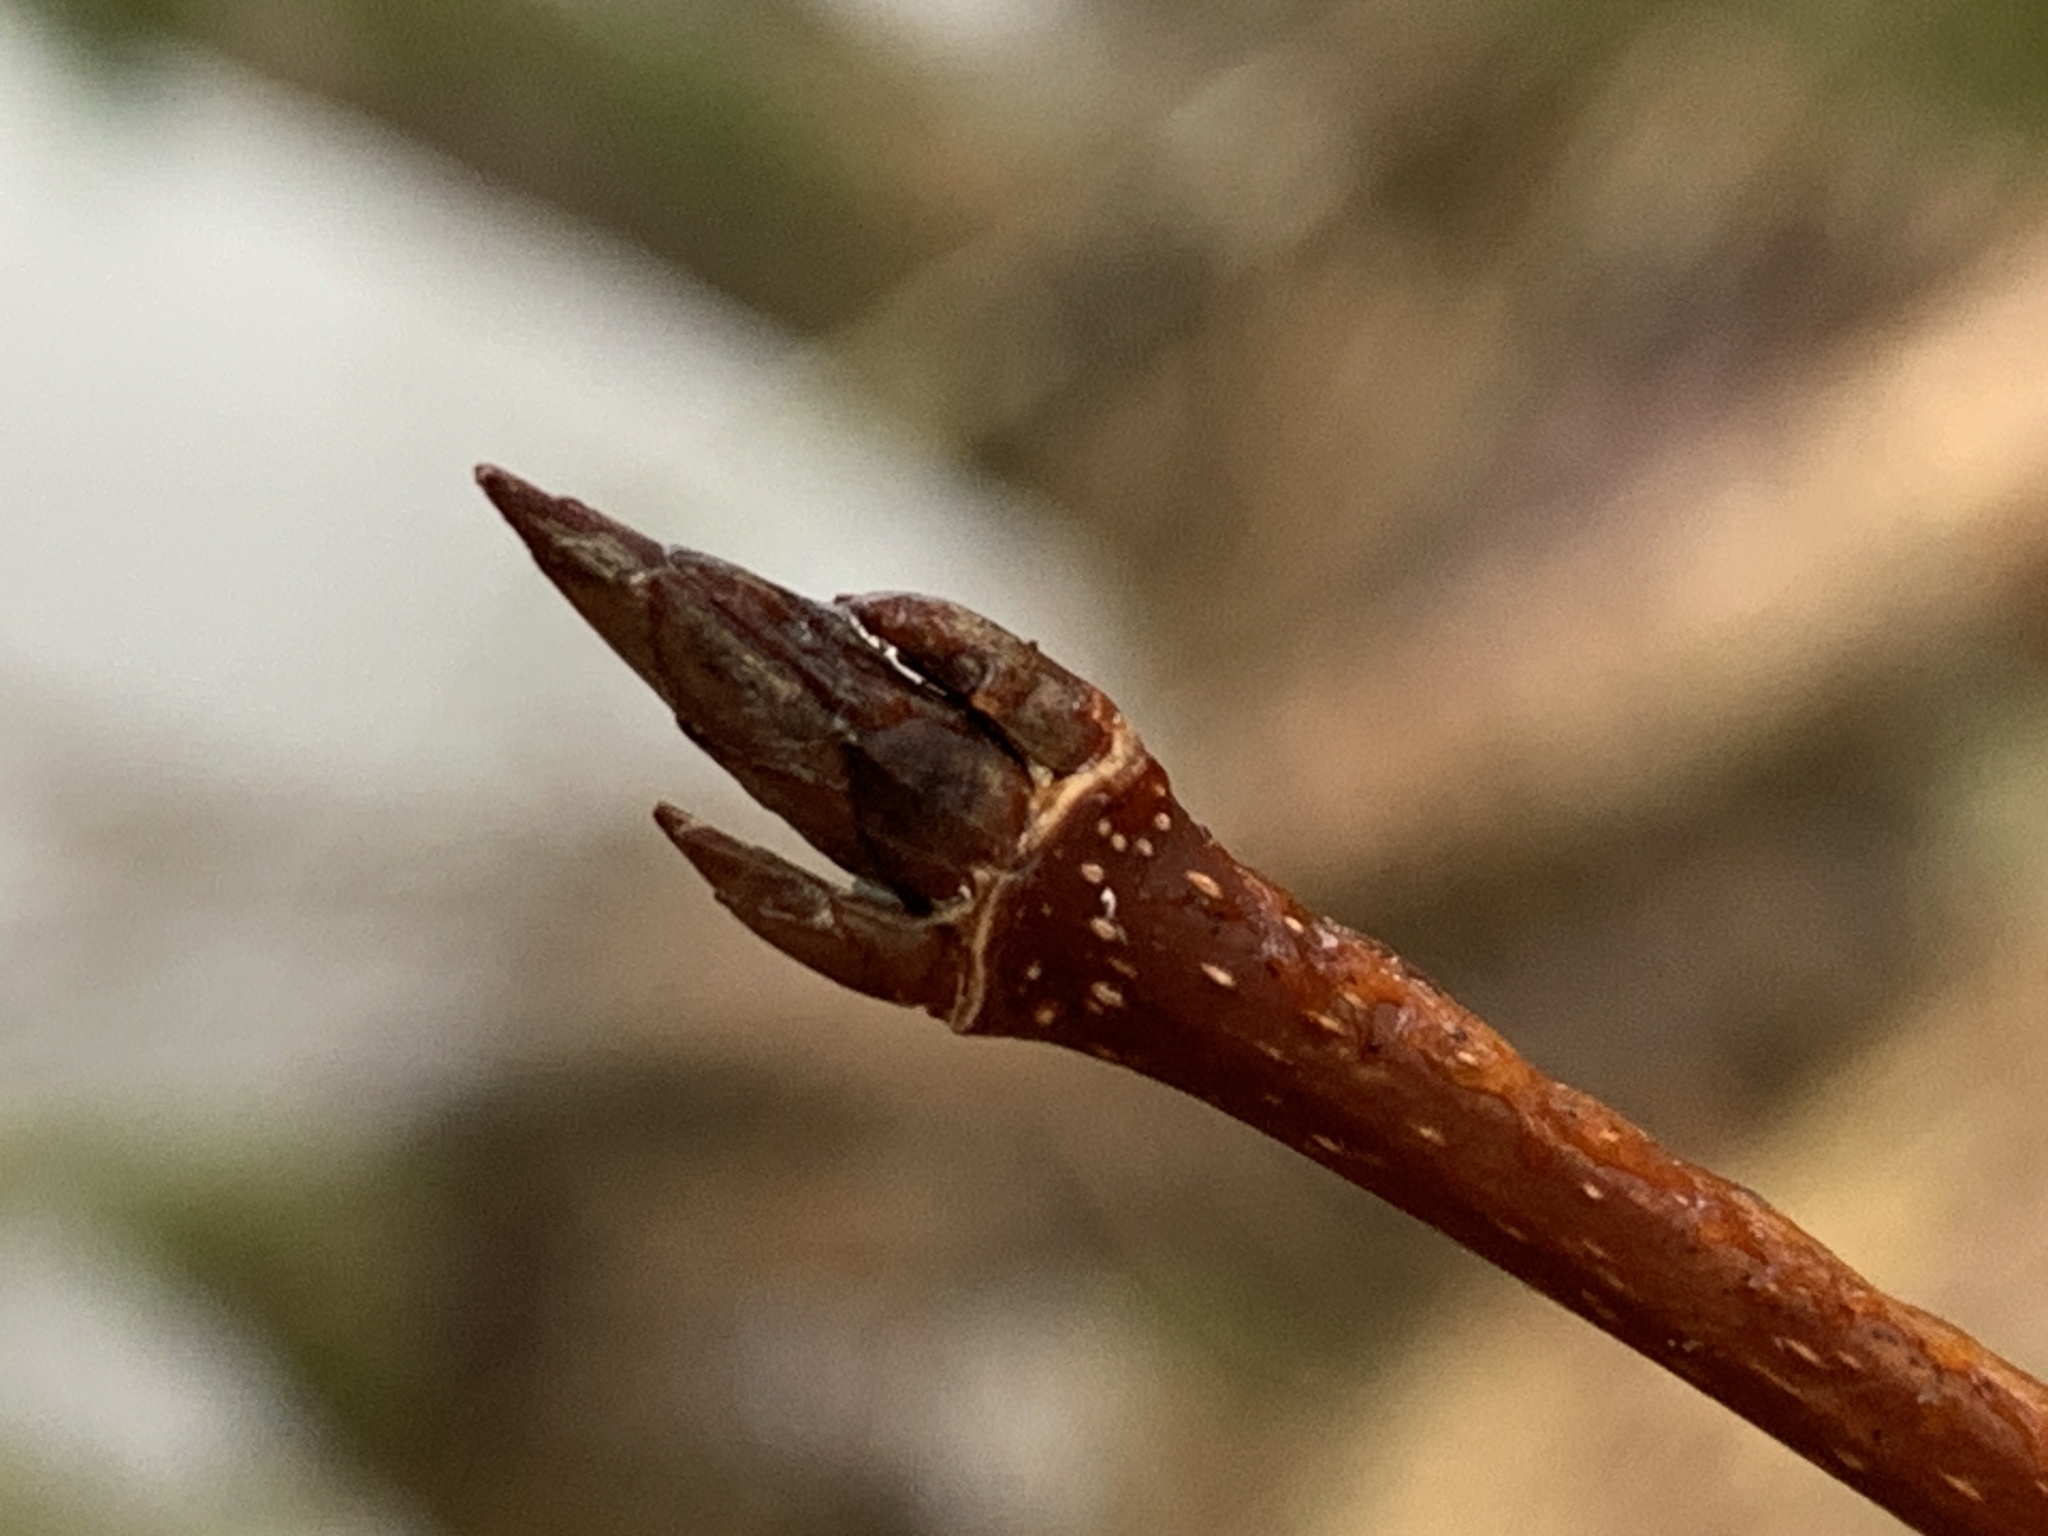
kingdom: Plantae
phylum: Tracheophyta
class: Magnoliopsida
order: Sapindales
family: Sapindaceae
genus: Acer
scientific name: Acer saccharum
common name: Sugar maple
